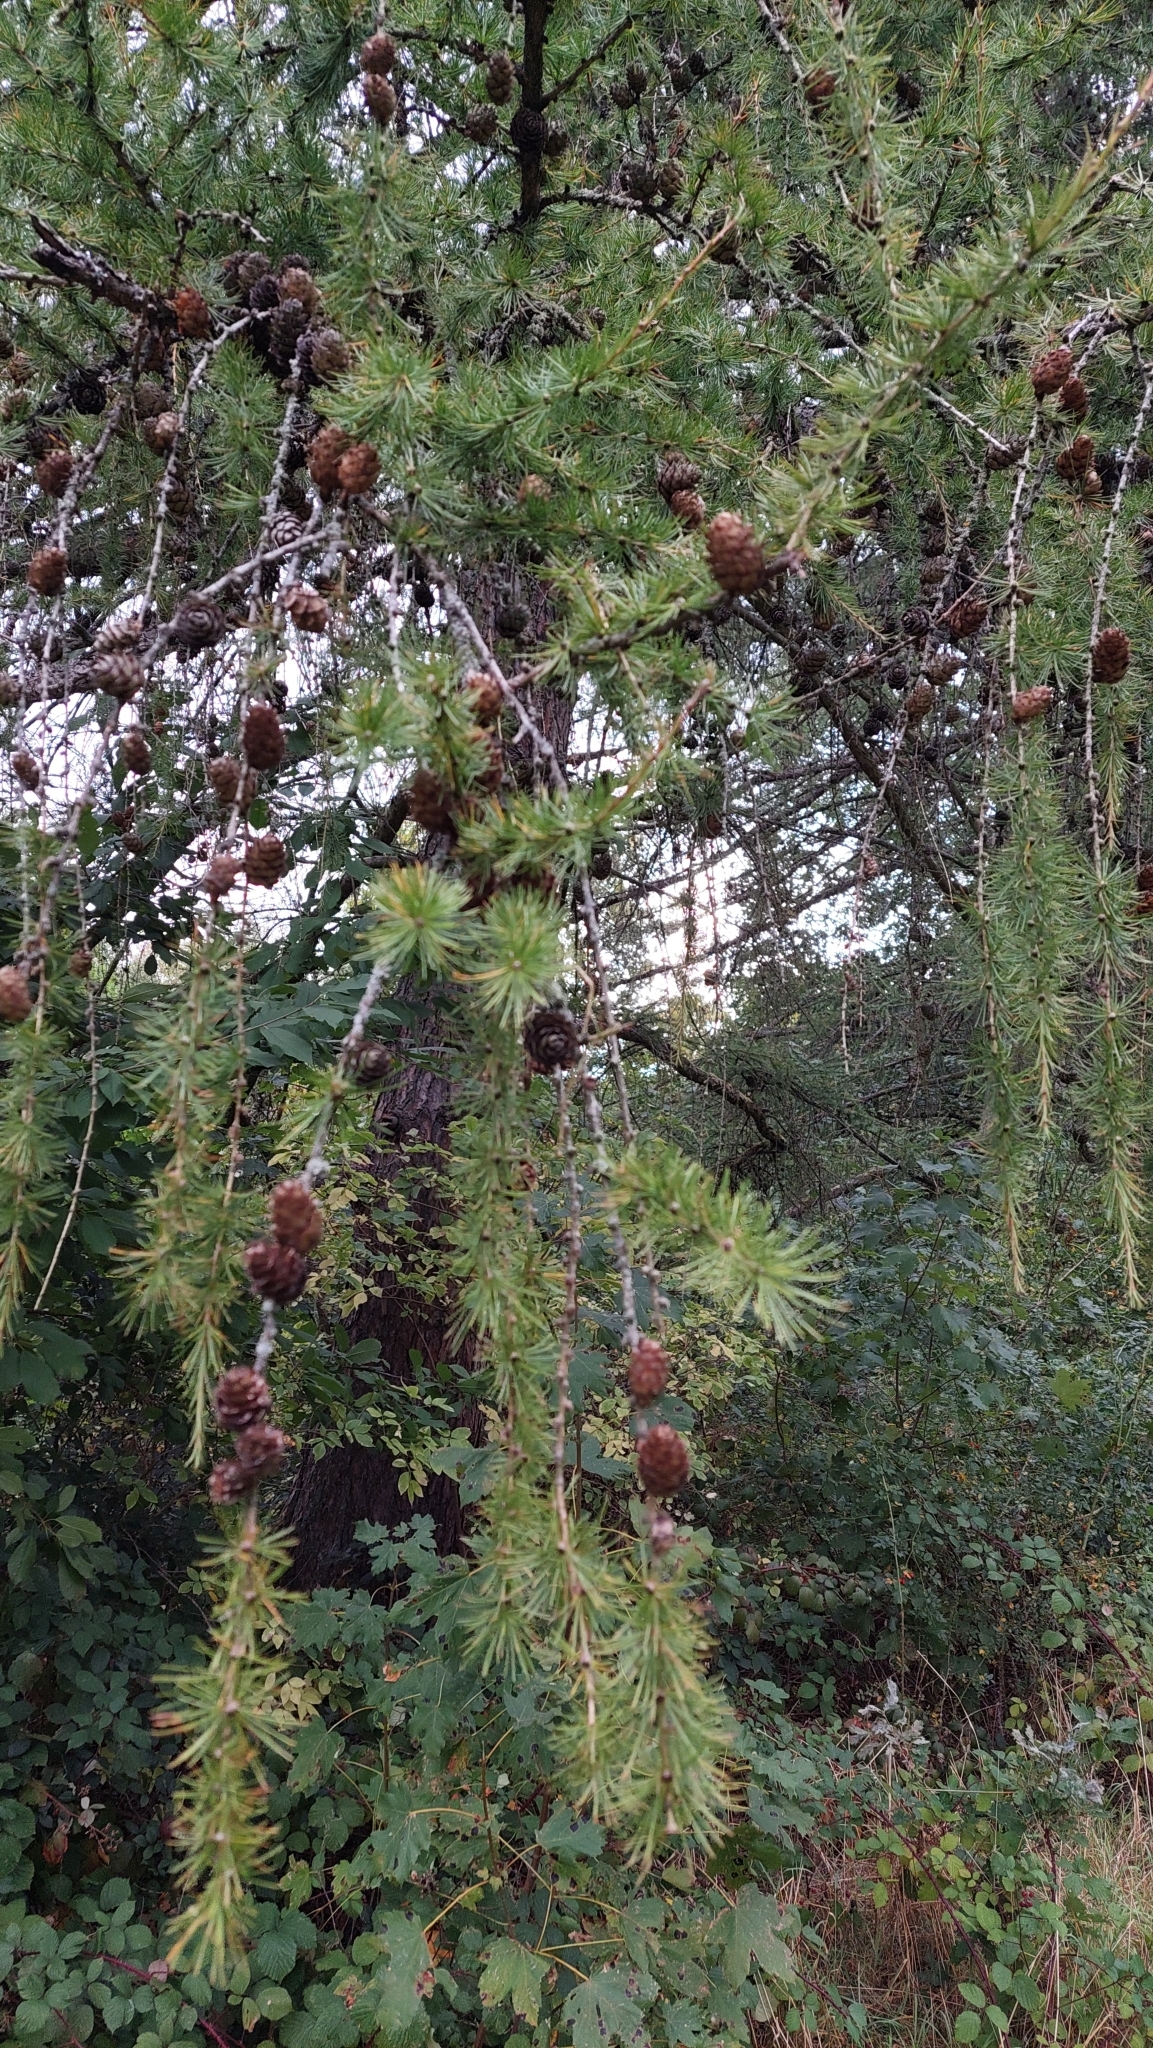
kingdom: Plantae
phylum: Tracheophyta
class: Pinopsida
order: Pinales
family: Pinaceae
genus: Larix
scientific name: Larix decidua
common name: European larch
